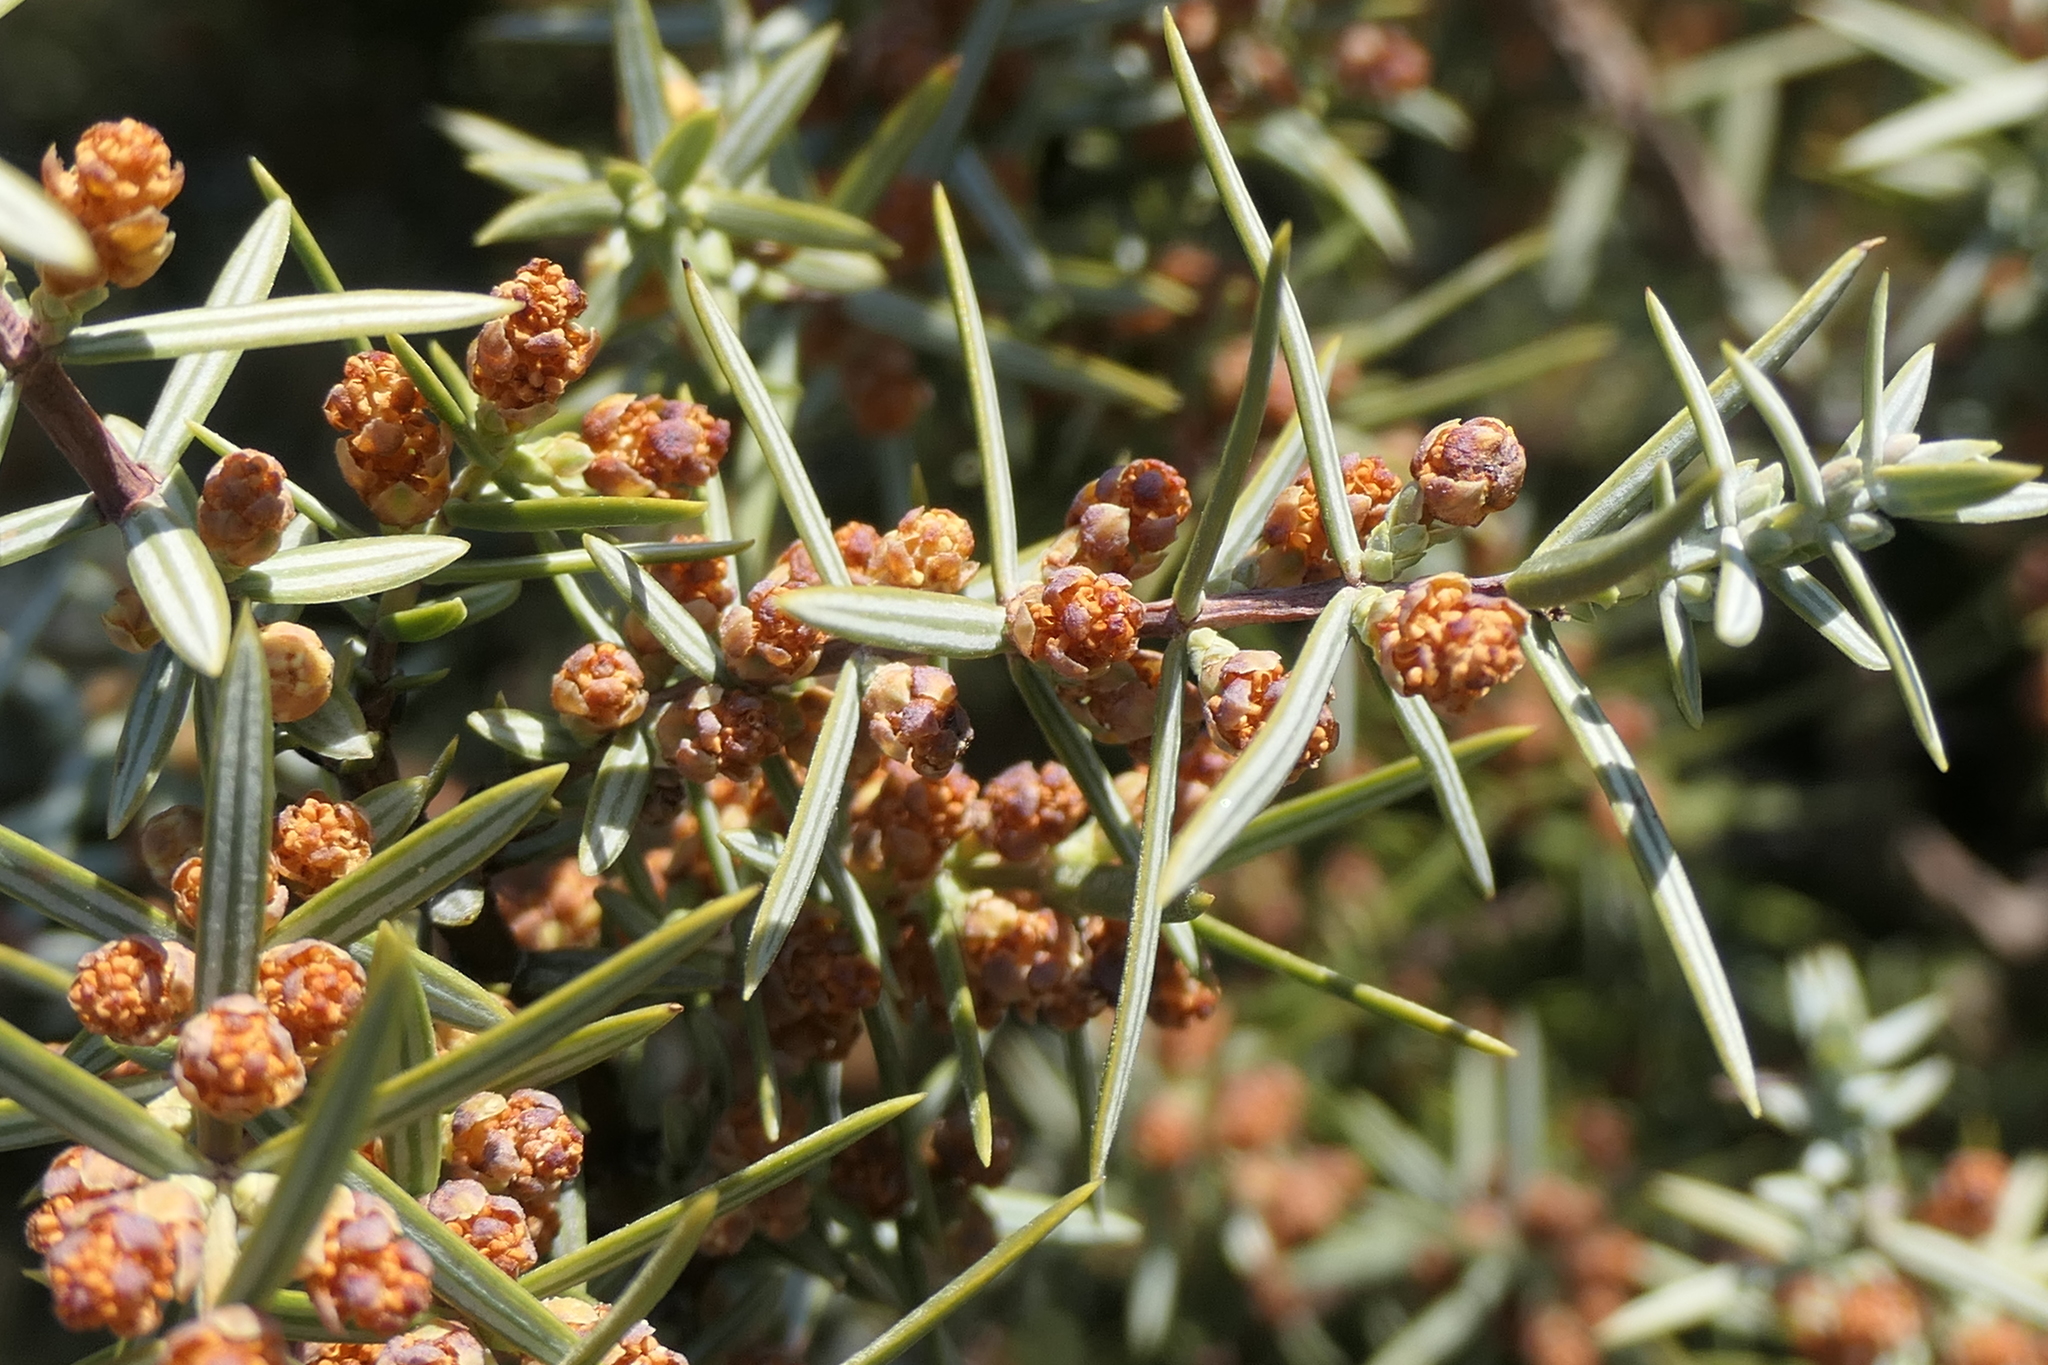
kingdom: Plantae
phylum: Tracheophyta
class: Pinopsida
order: Pinales
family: Cupressaceae
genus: Juniperus
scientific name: Juniperus oxycedrus
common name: Prickly juniper
